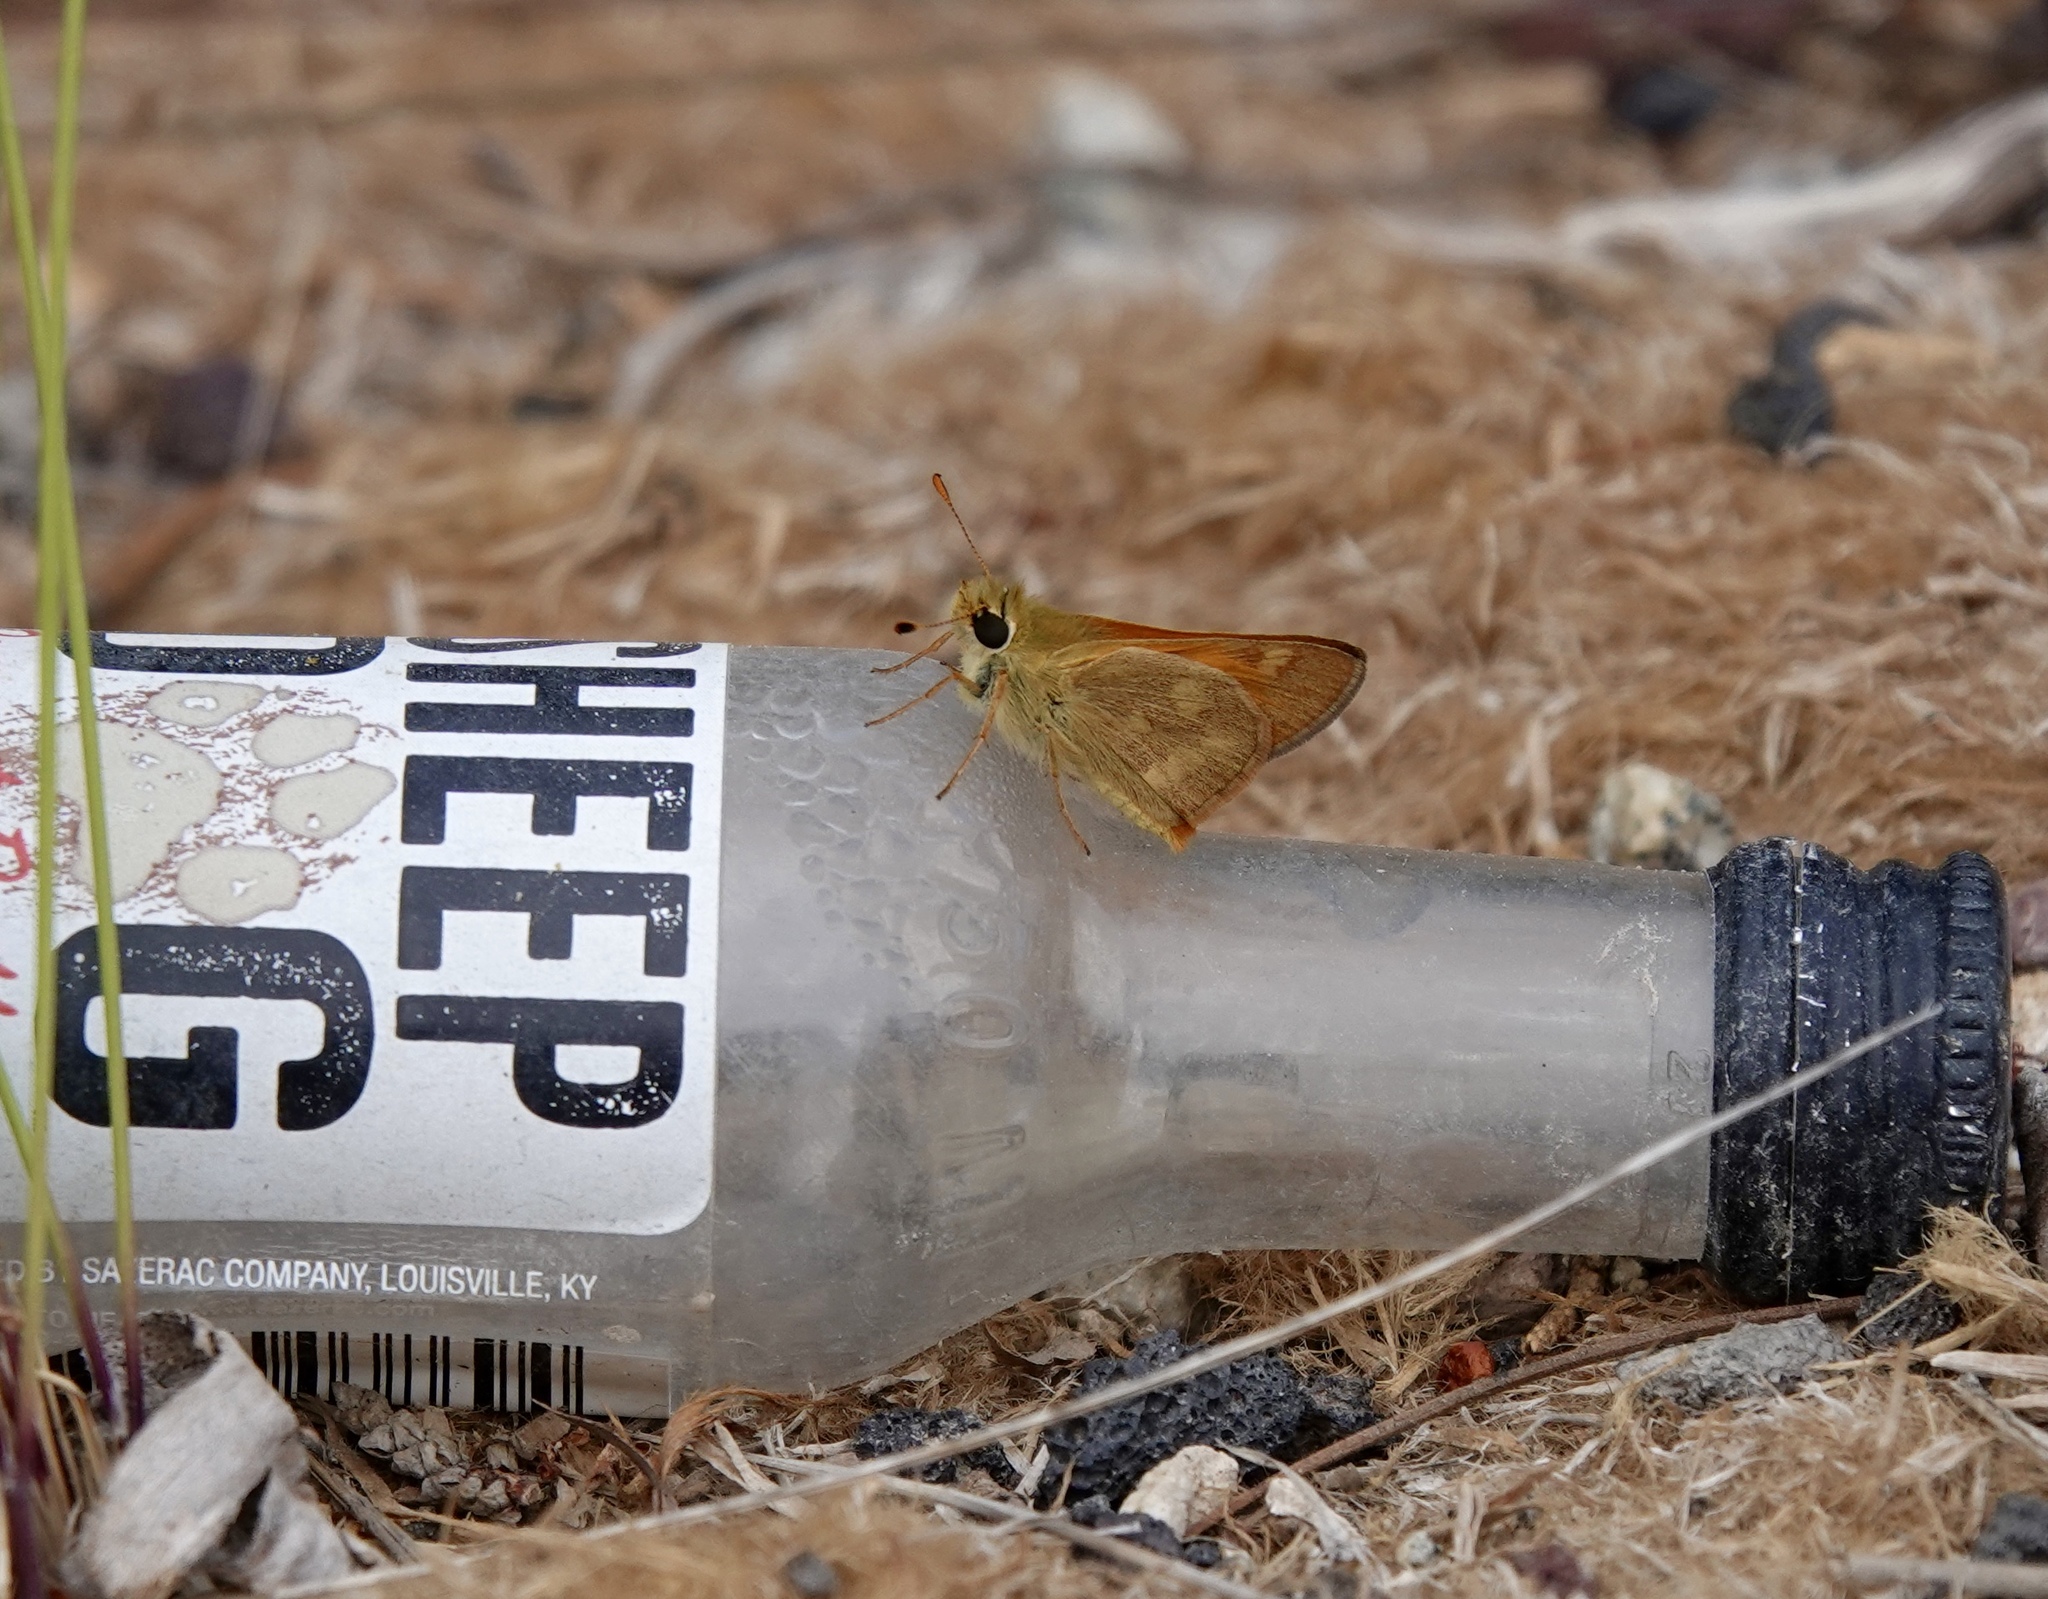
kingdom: Animalia
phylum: Arthropoda
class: Insecta
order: Lepidoptera
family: Hesperiidae
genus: Ochlodes
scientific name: Ochlodes sylvanoides
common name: Woodland skipper
